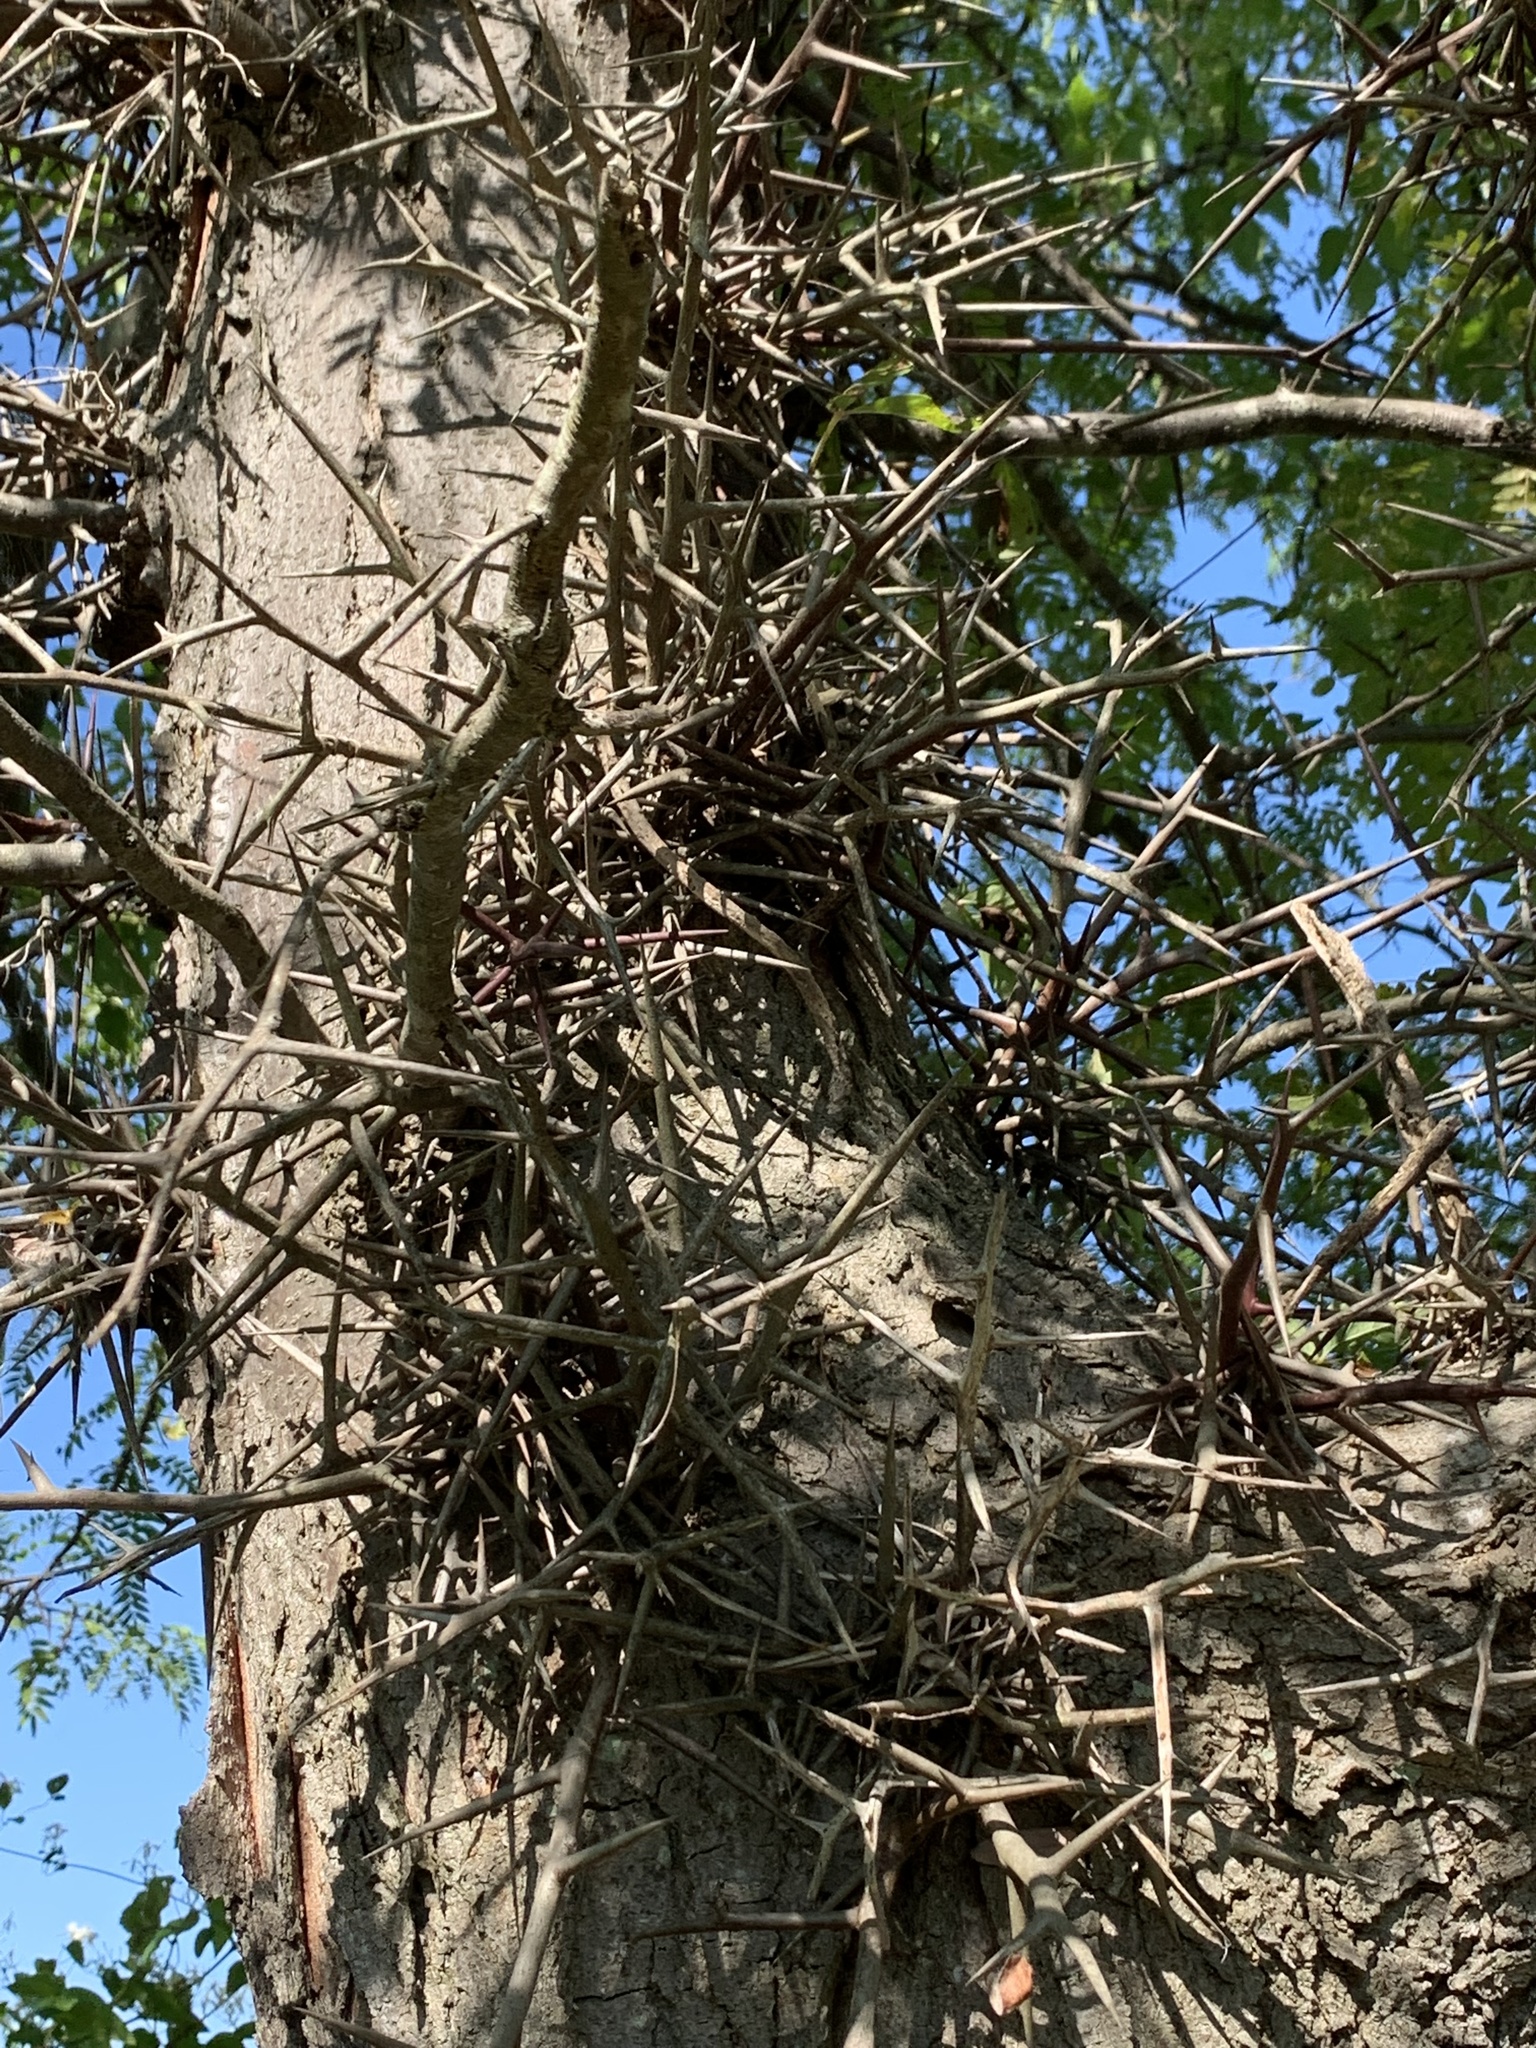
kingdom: Plantae
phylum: Tracheophyta
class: Magnoliopsida
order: Fabales
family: Fabaceae
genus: Gleditsia
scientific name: Gleditsia triacanthos
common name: Common honeylocust
